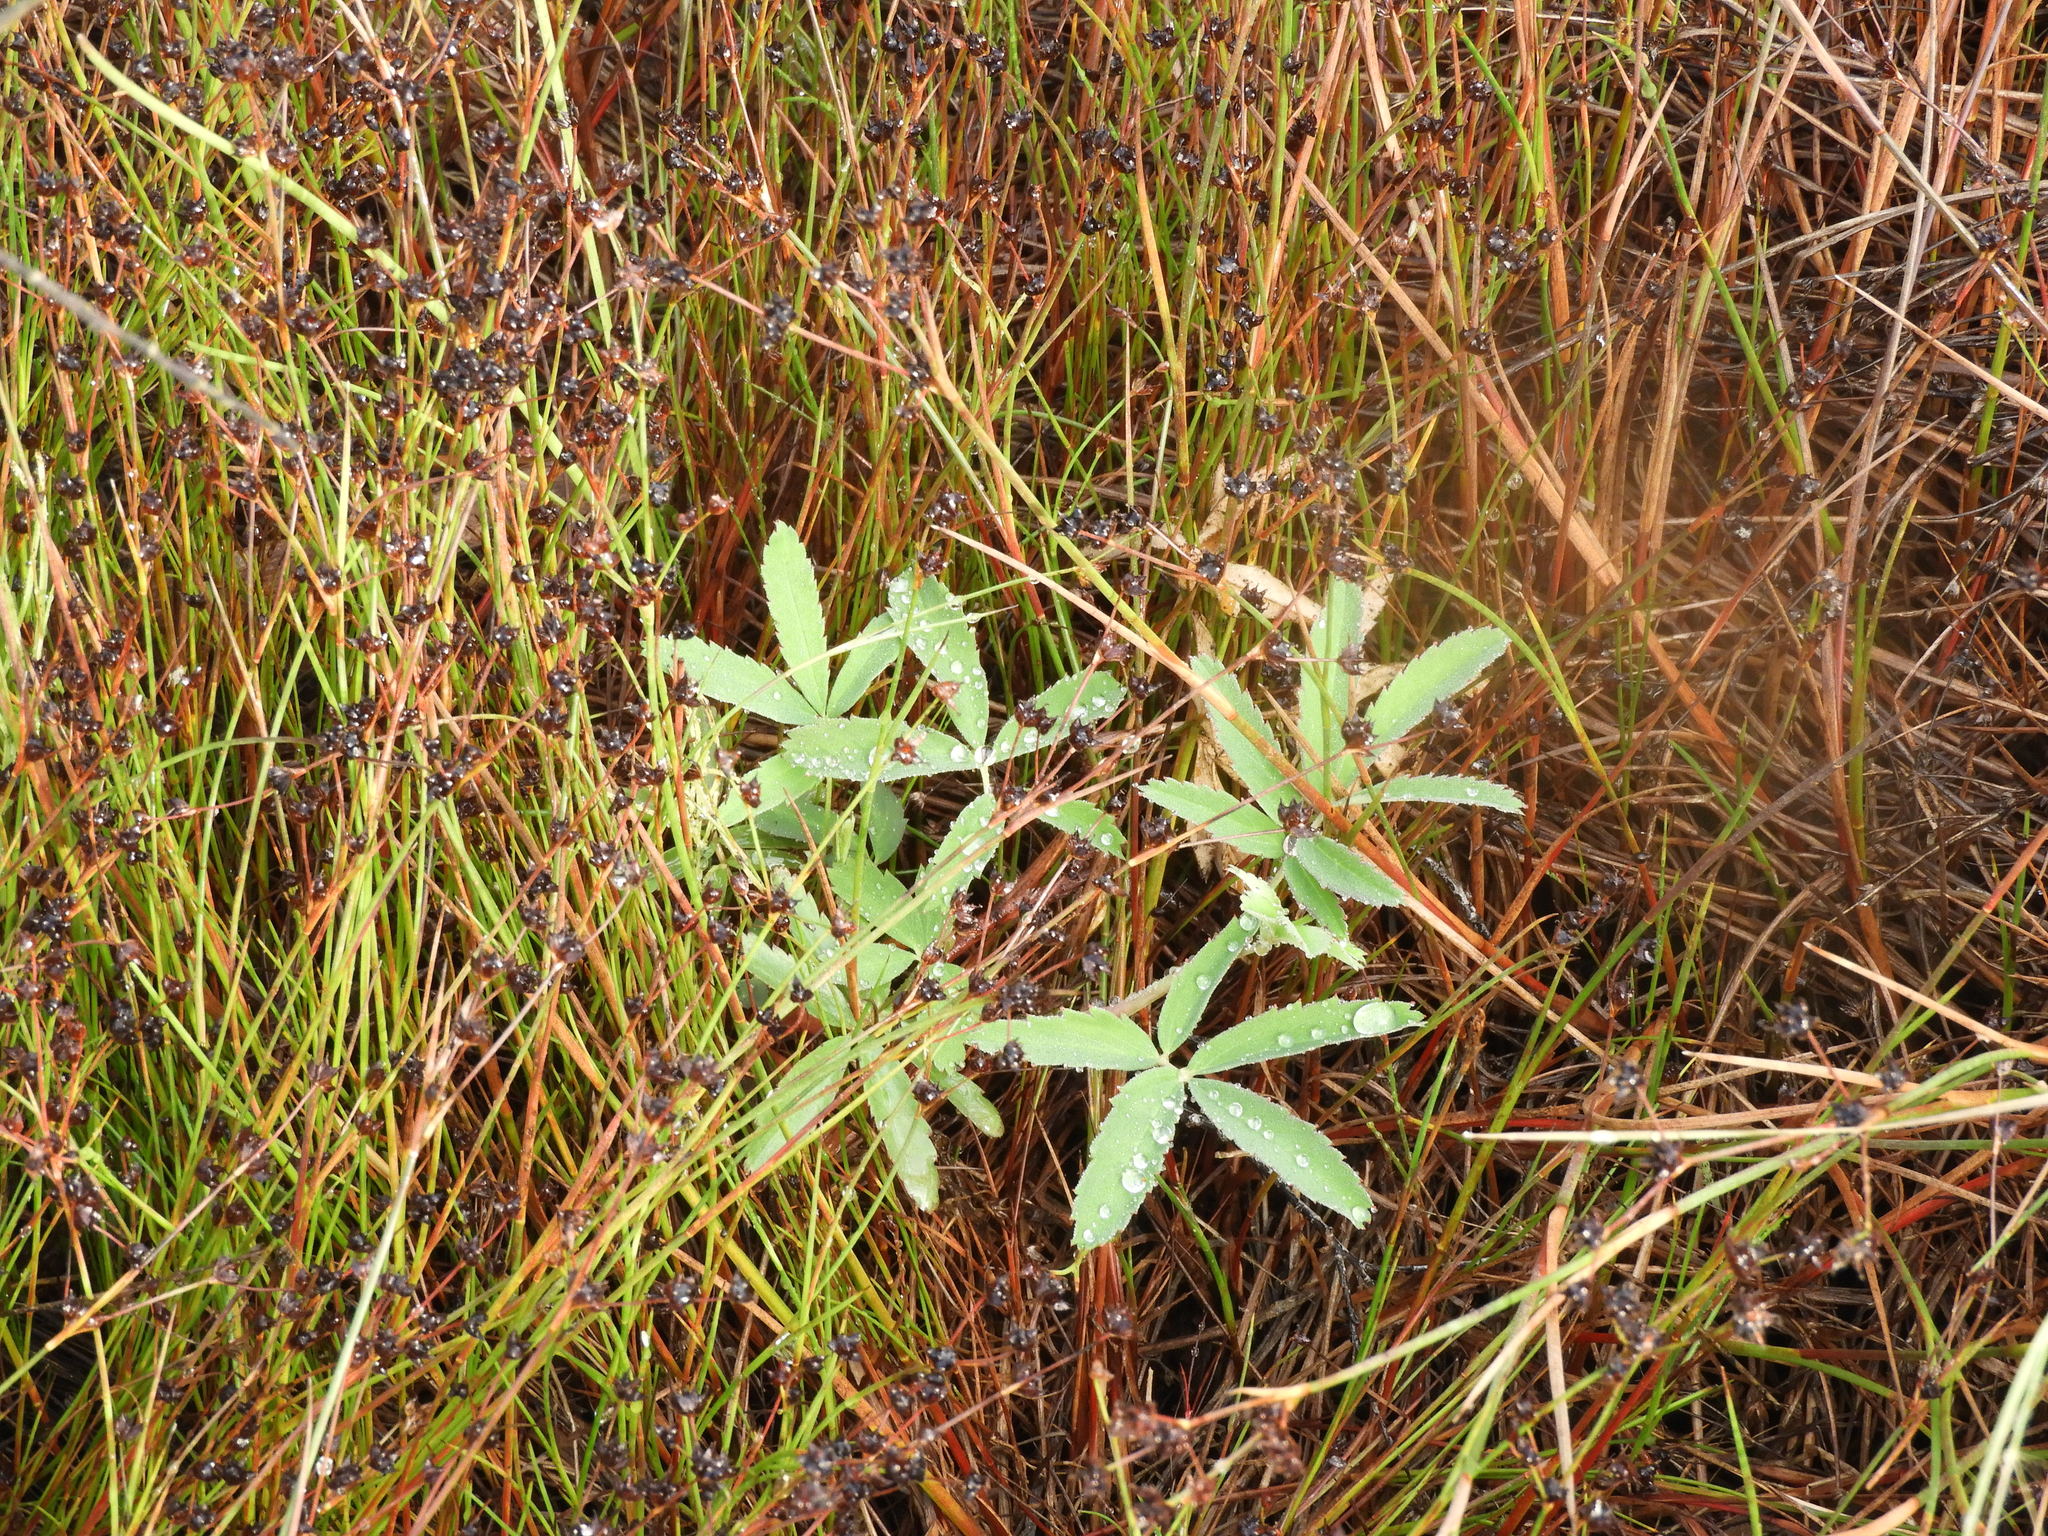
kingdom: Plantae
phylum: Tracheophyta
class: Magnoliopsida
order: Rosales
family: Rosaceae
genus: Comarum
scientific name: Comarum palustre
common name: Marsh cinquefoil
